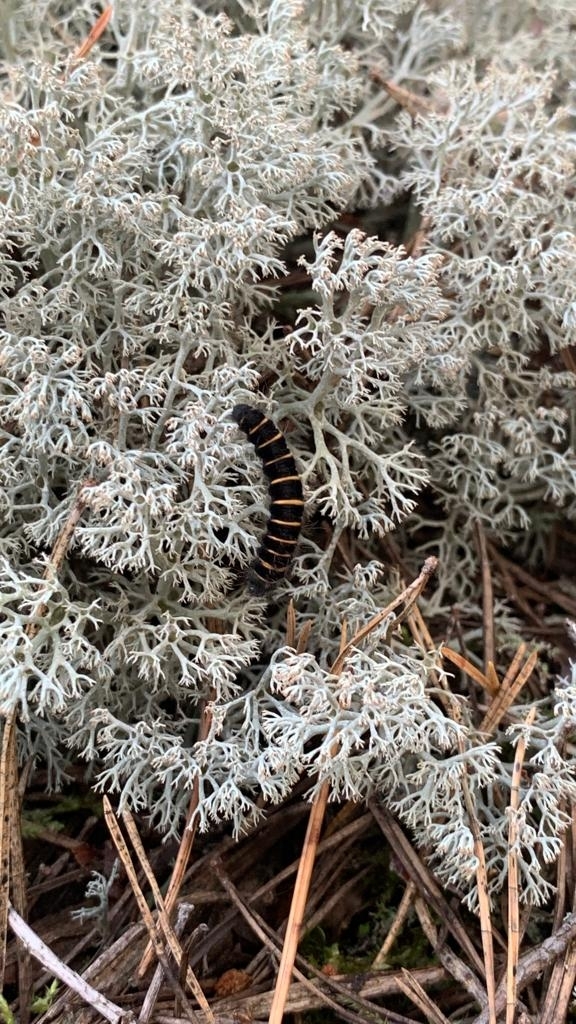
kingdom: Animalia
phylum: Arthropoda
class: Insecta
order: Lepidoptera
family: Lasiocampidae
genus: Macrothylacia
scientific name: Macrothylacia rubi
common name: Fox moth
